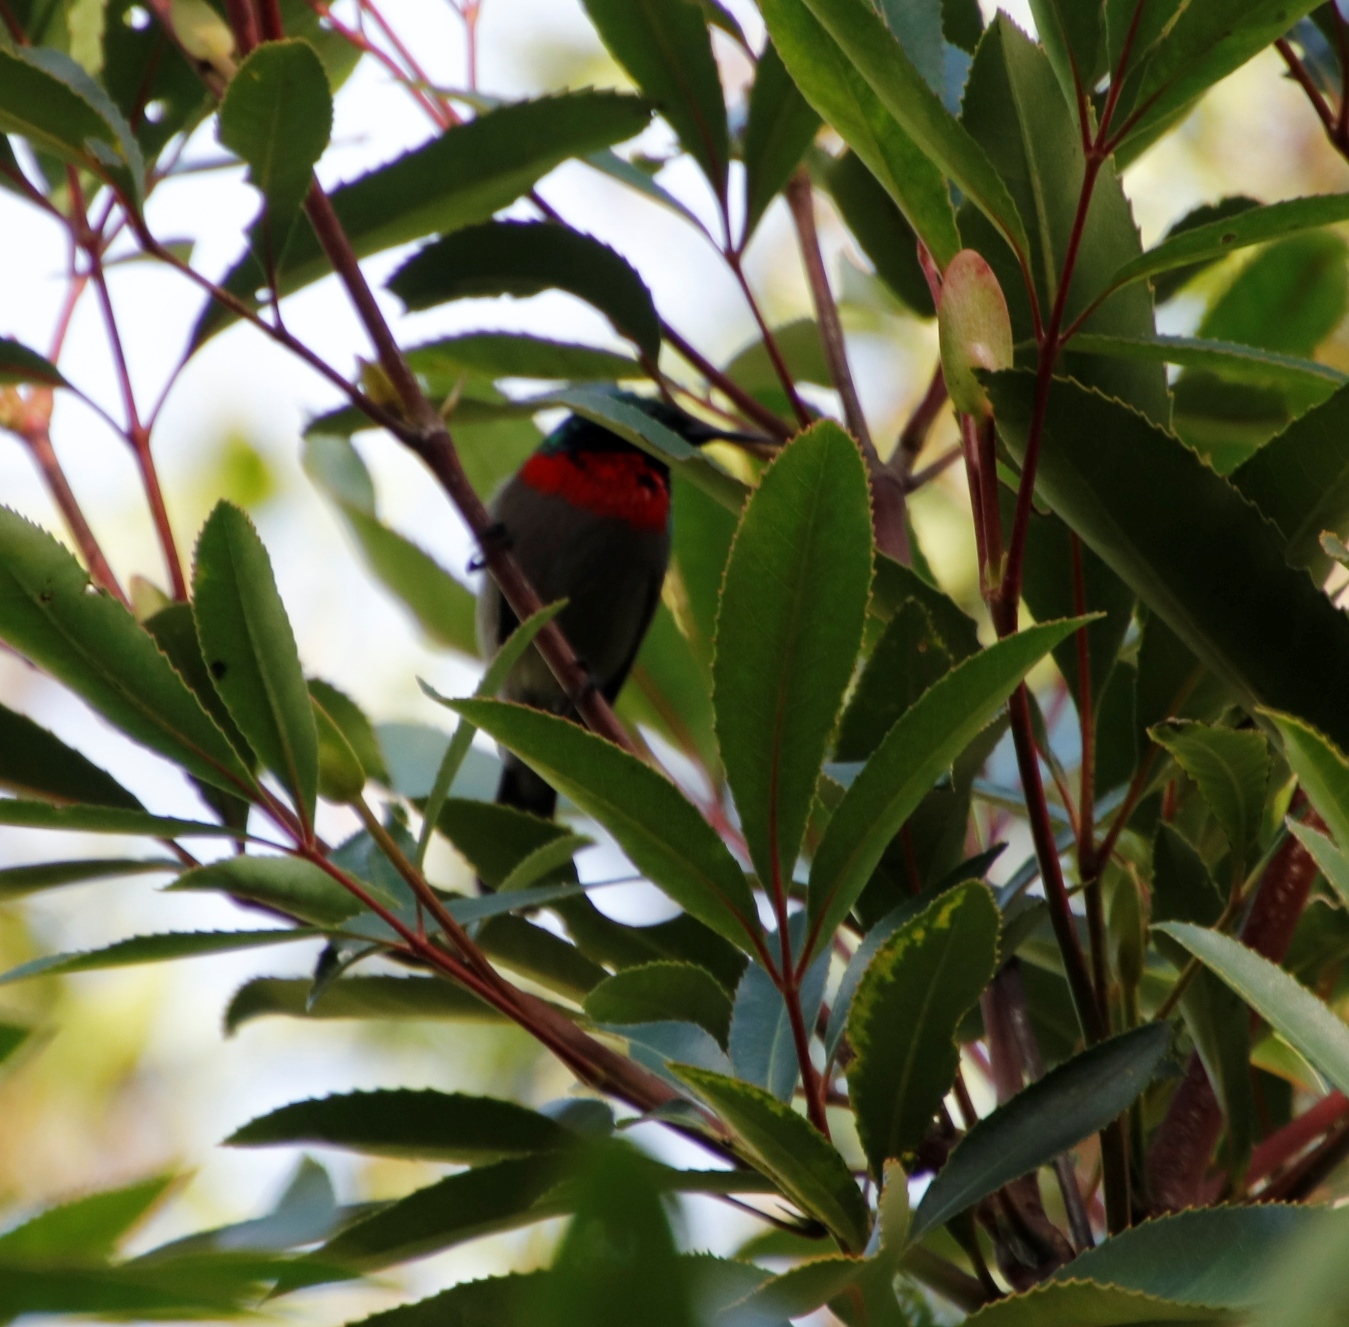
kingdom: Plantae
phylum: Tracheophyta
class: Magnoliopsida
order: Oxalidales
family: Cunoniaceae
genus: Cunonia
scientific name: Cunonia capensis
